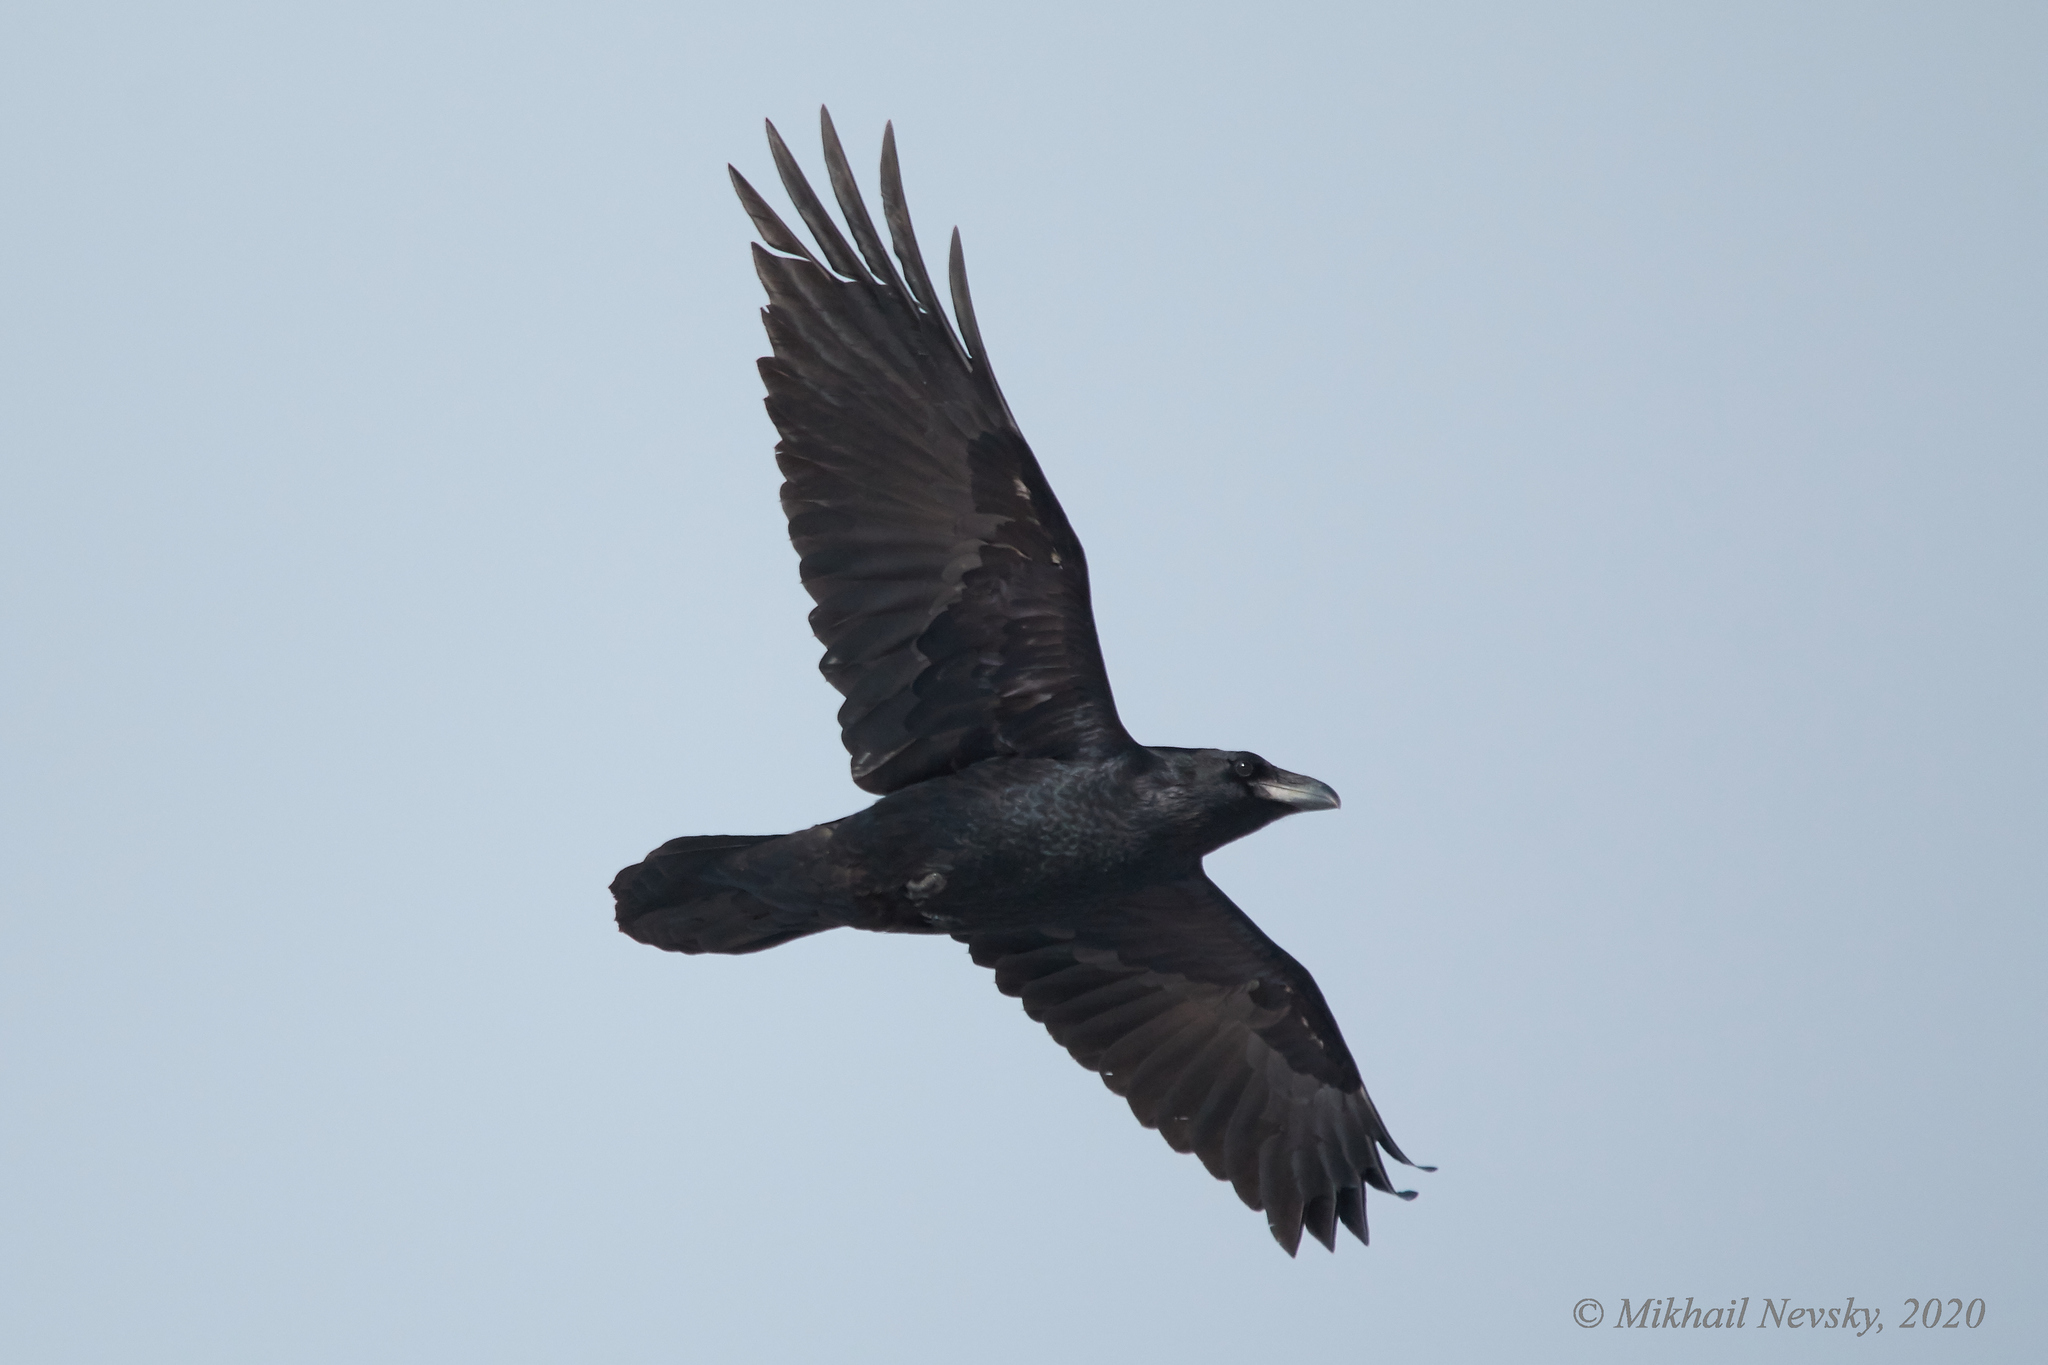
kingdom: Animalia
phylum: Chordata
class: Aves
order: Passeriformes
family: Corvidae
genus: Corvus
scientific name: Corvus corax
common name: Common raven
